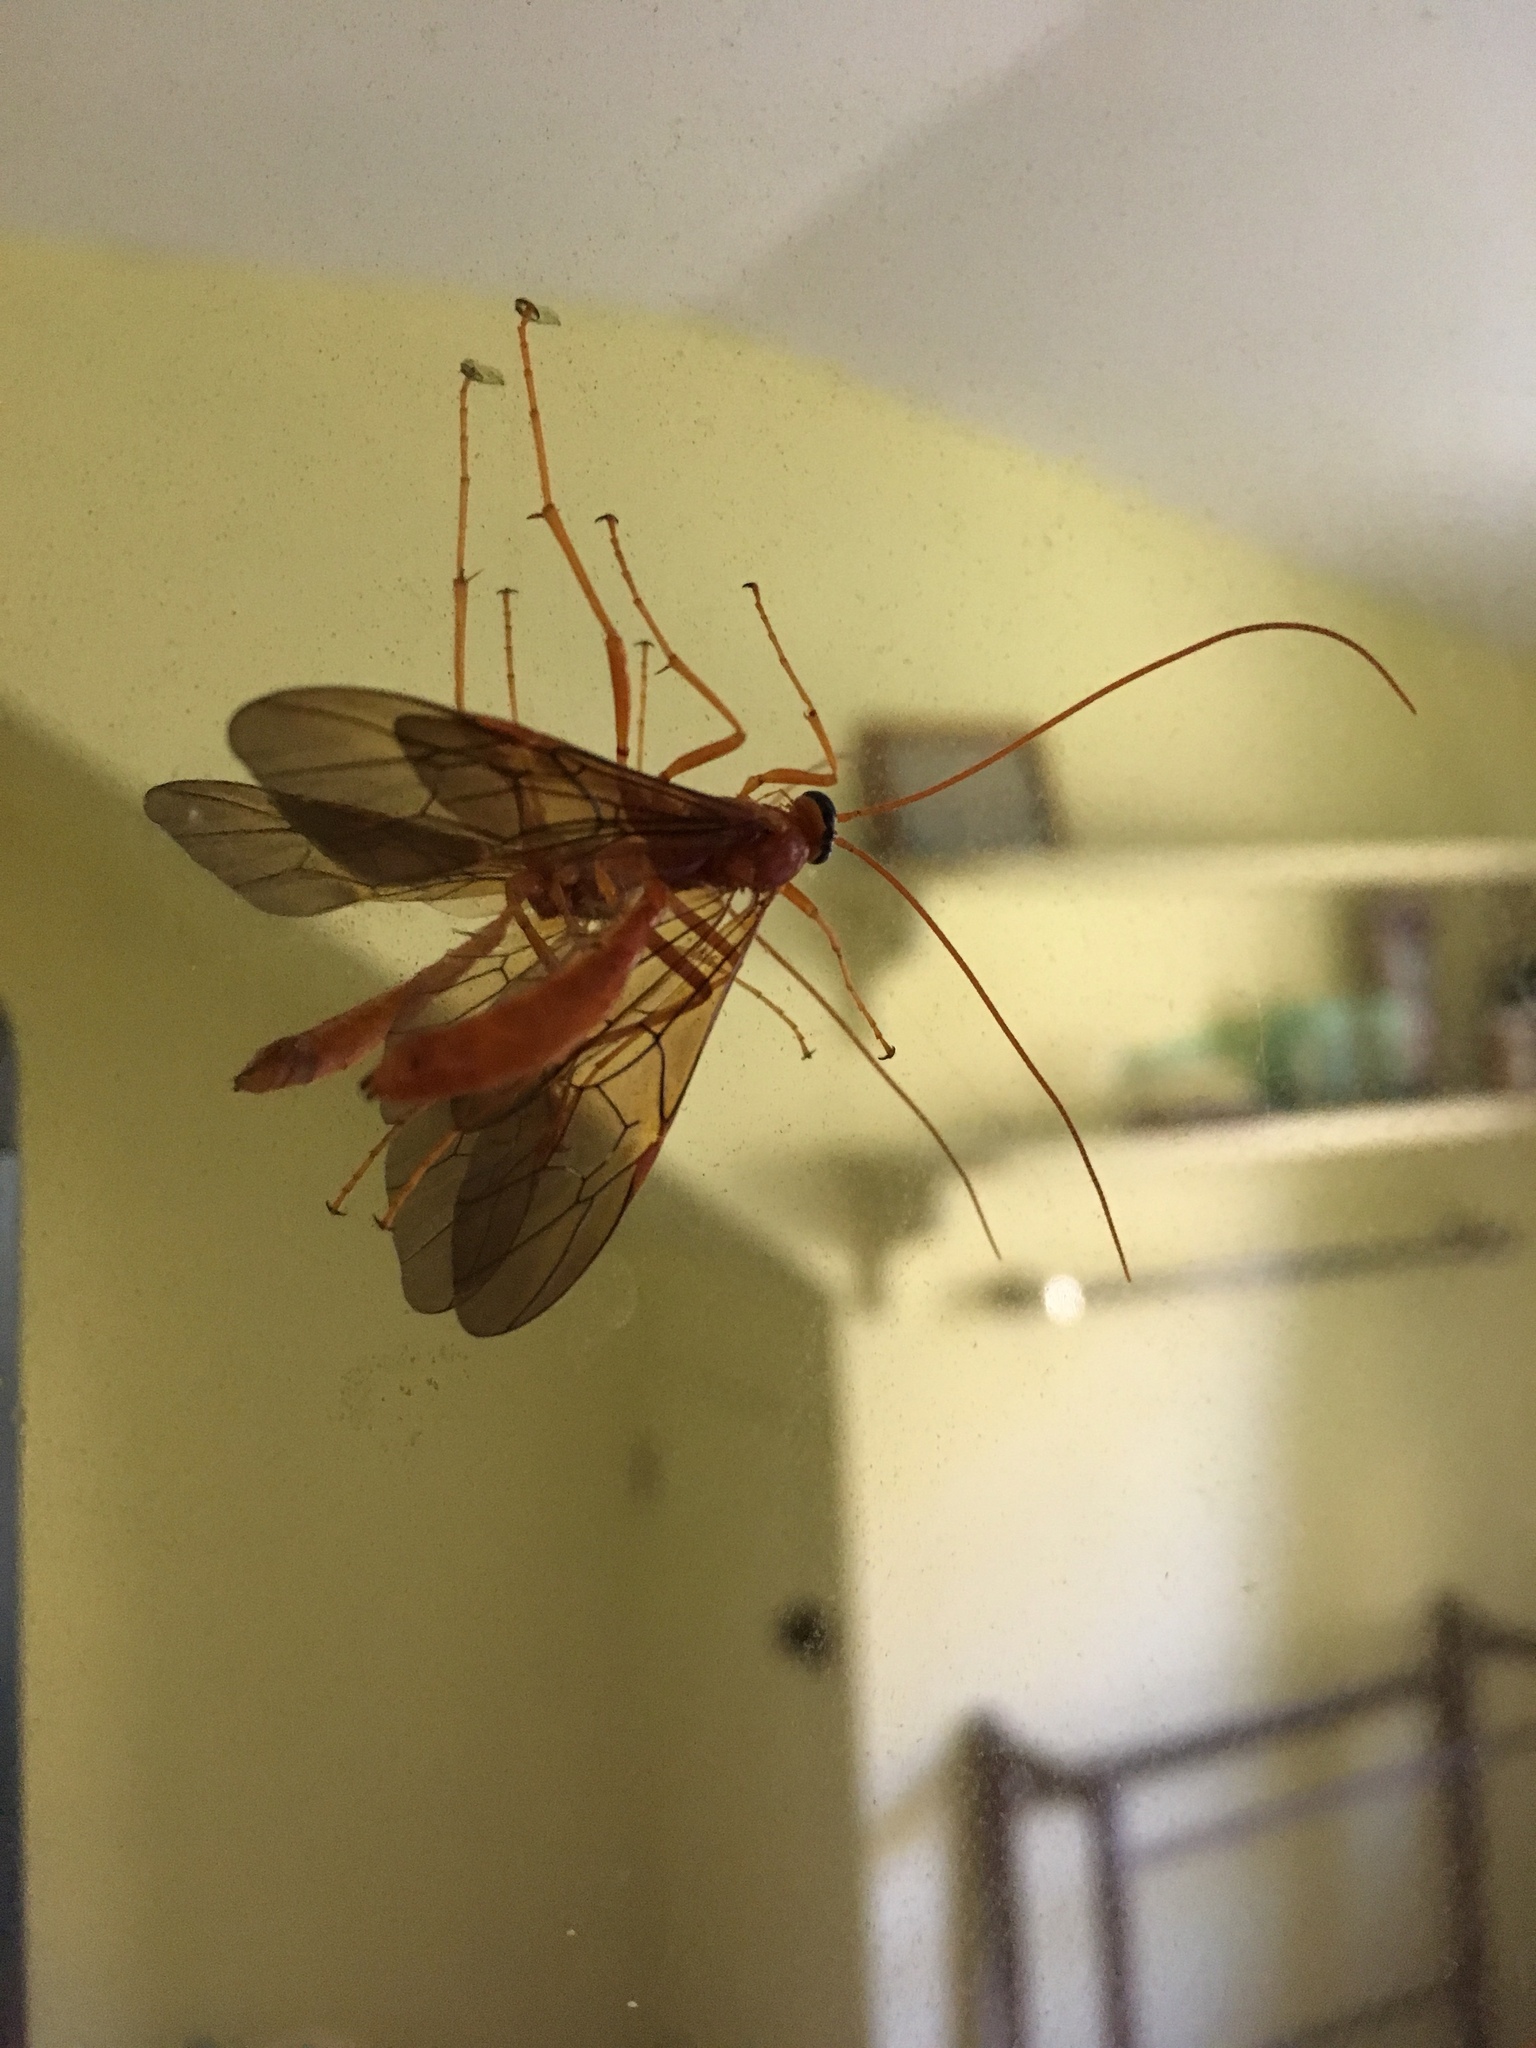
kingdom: Animalia
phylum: Arthropoda
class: Insecta
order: Hymenoptera
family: Ichneumonidae
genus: Ophion
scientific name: Ophion
